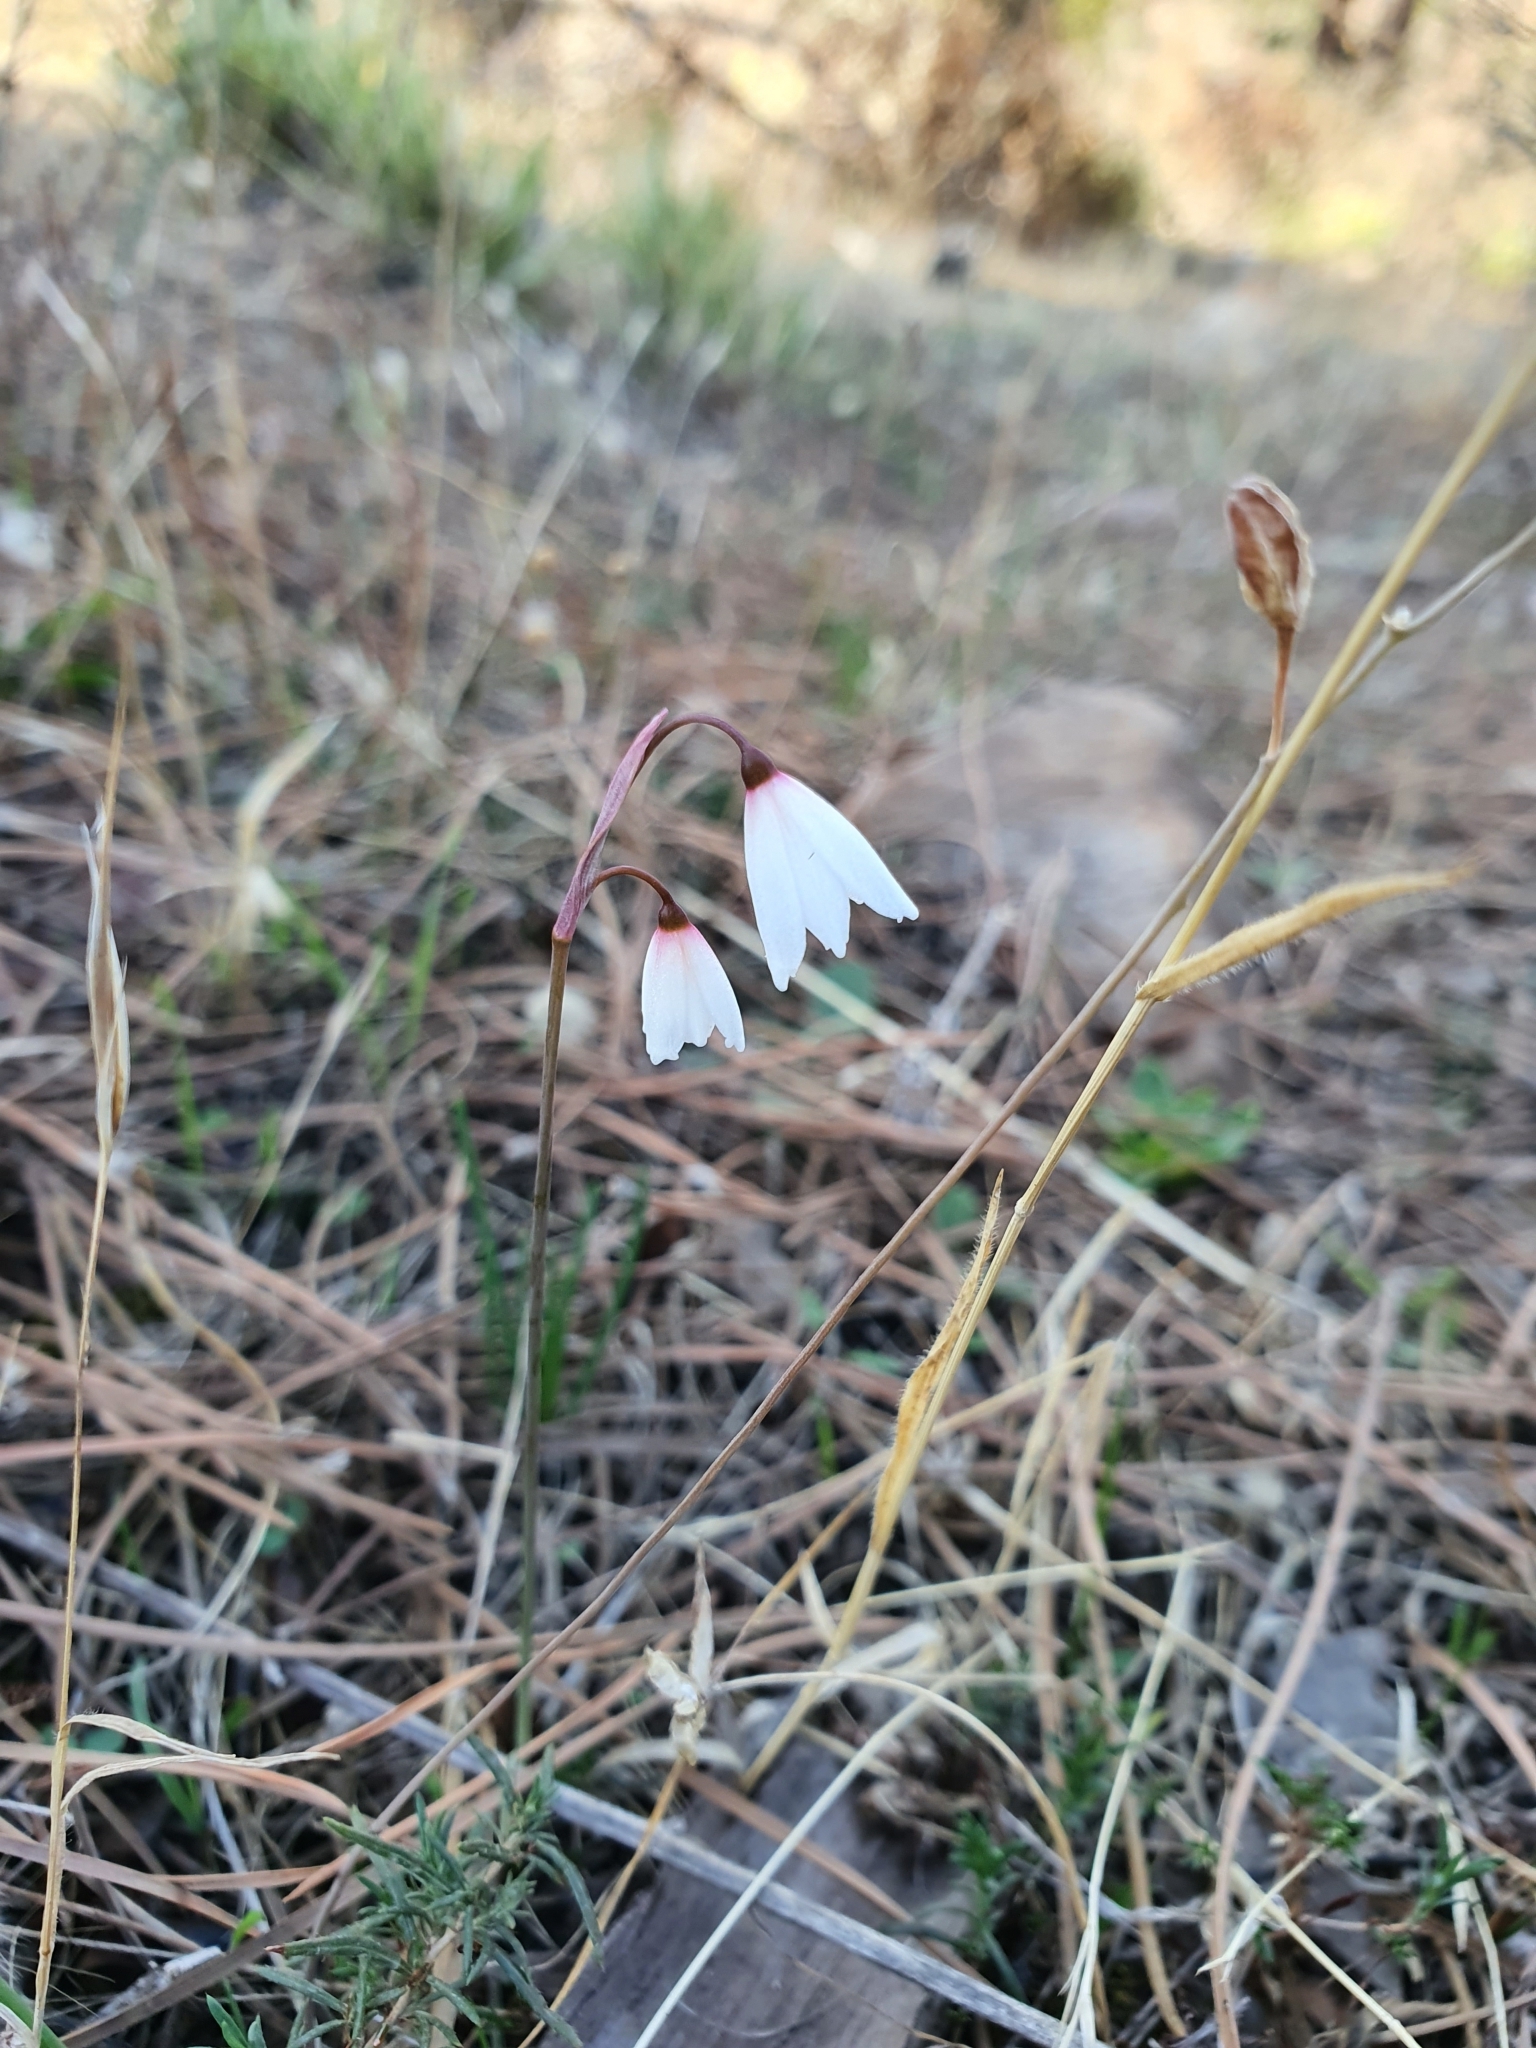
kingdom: Plantae
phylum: Tracheophyta
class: Liliopsida
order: Asparagales
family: Amaryllidaceae
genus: Acis
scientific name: Acis autumnalis
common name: Autumn snowflake
